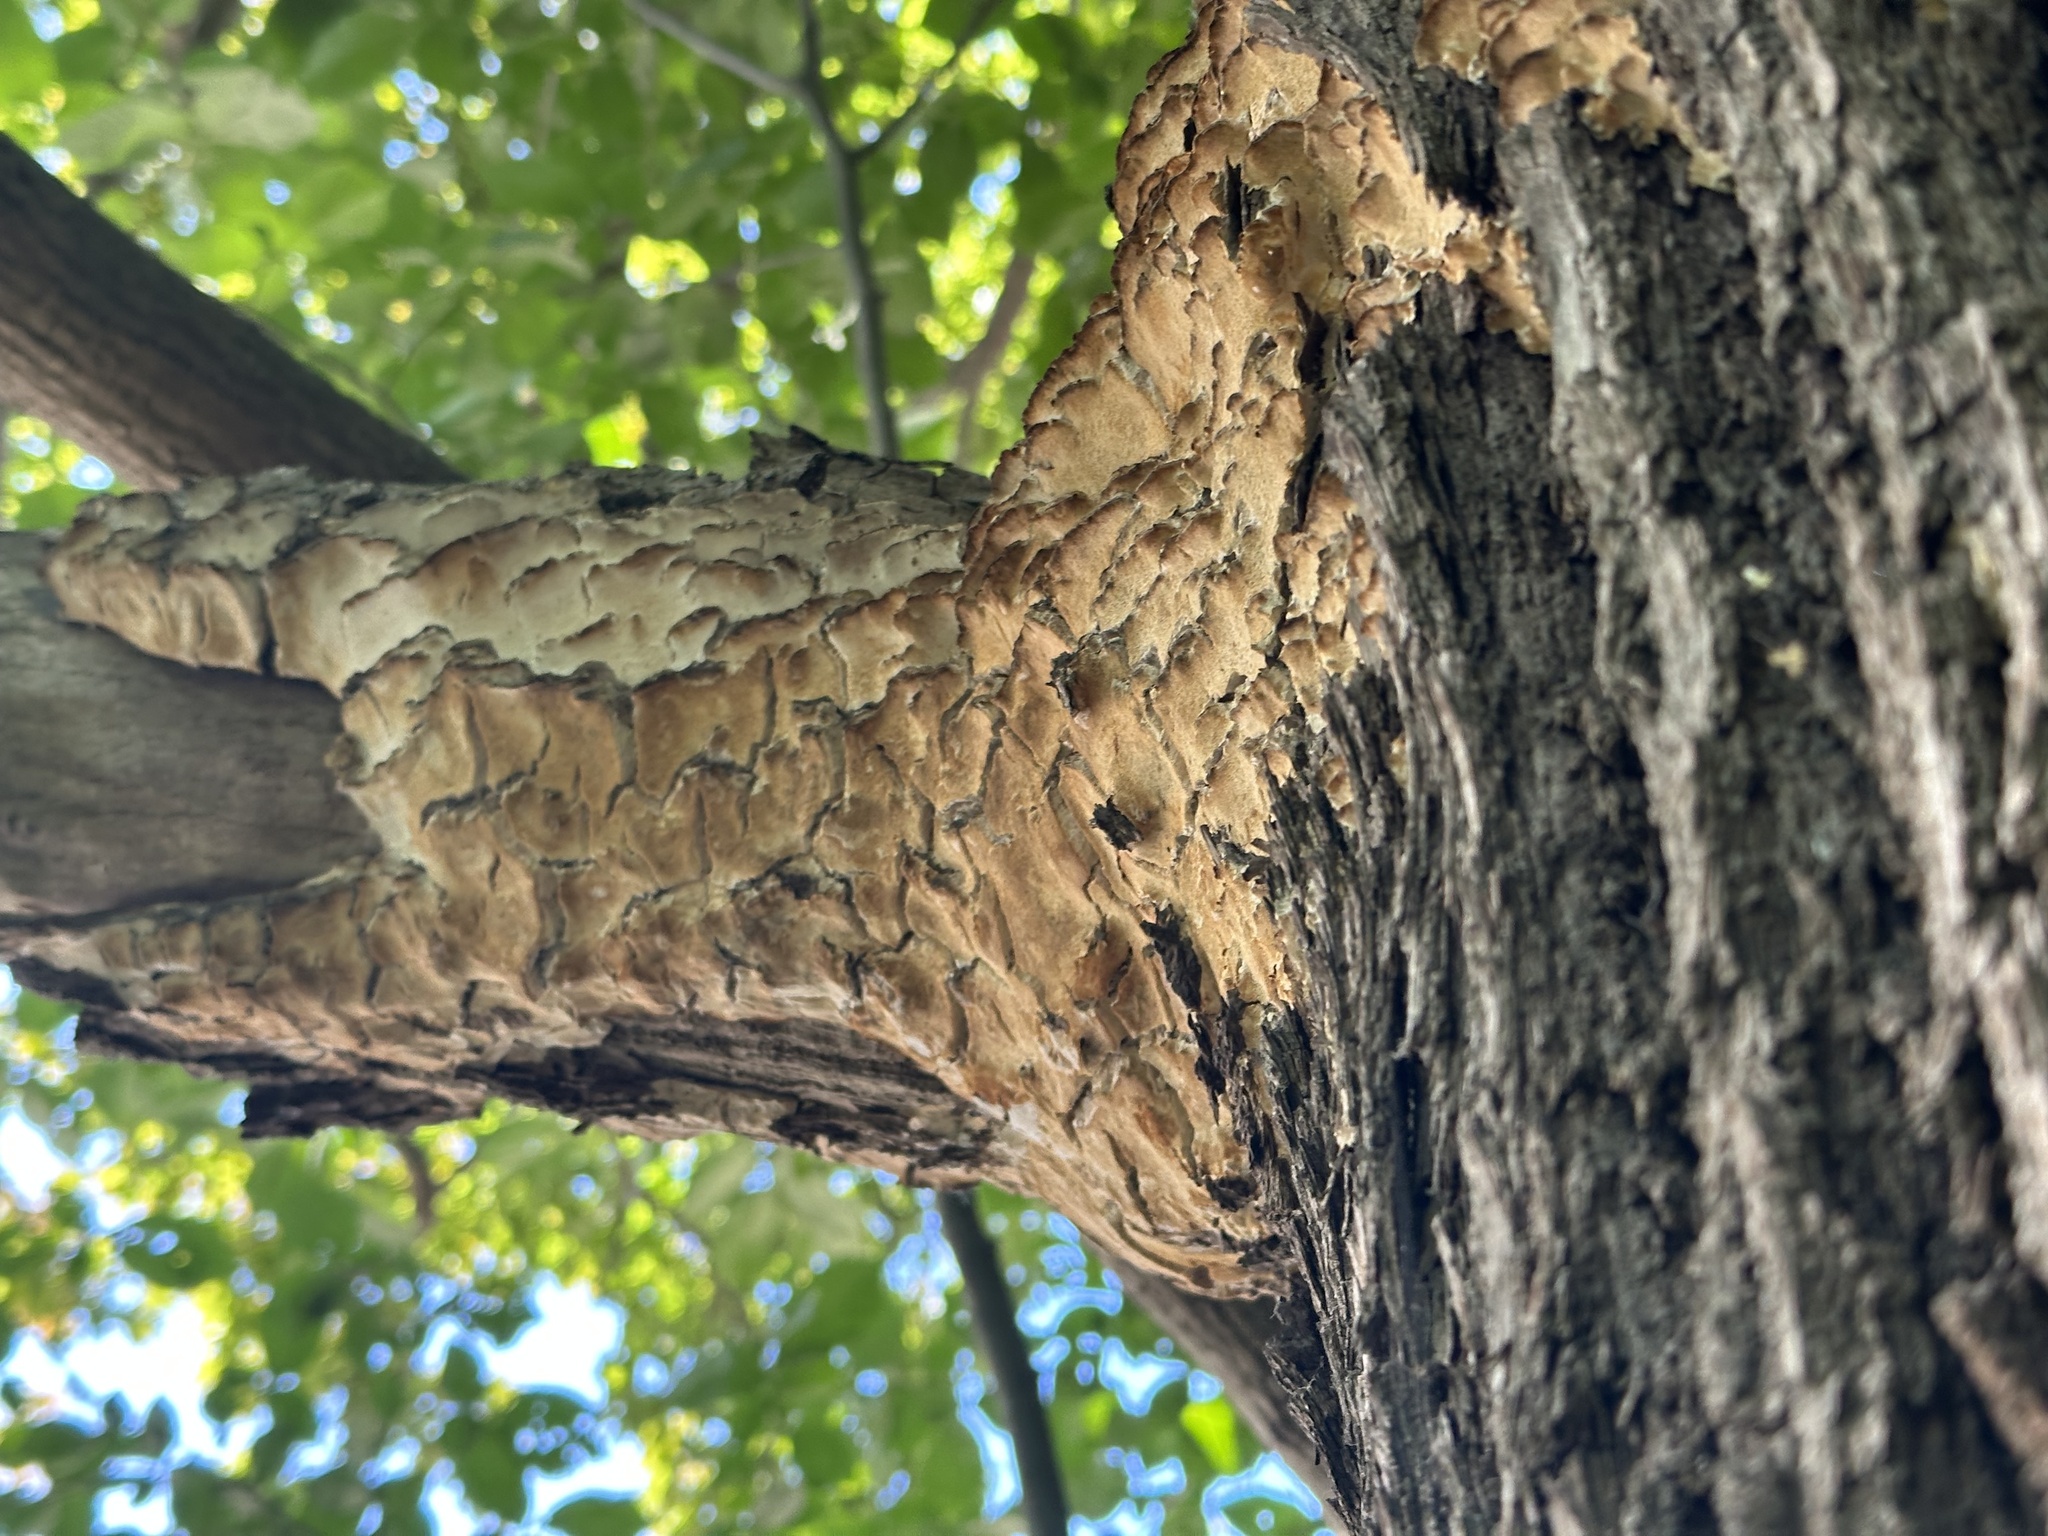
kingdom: Fungi
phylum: Basidiomycota
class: Agaricomycetes
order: Hymenochaetales
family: Oxyporaceae
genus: Oxyporus
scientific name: Oxyporus populinus
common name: Poplar bracket
